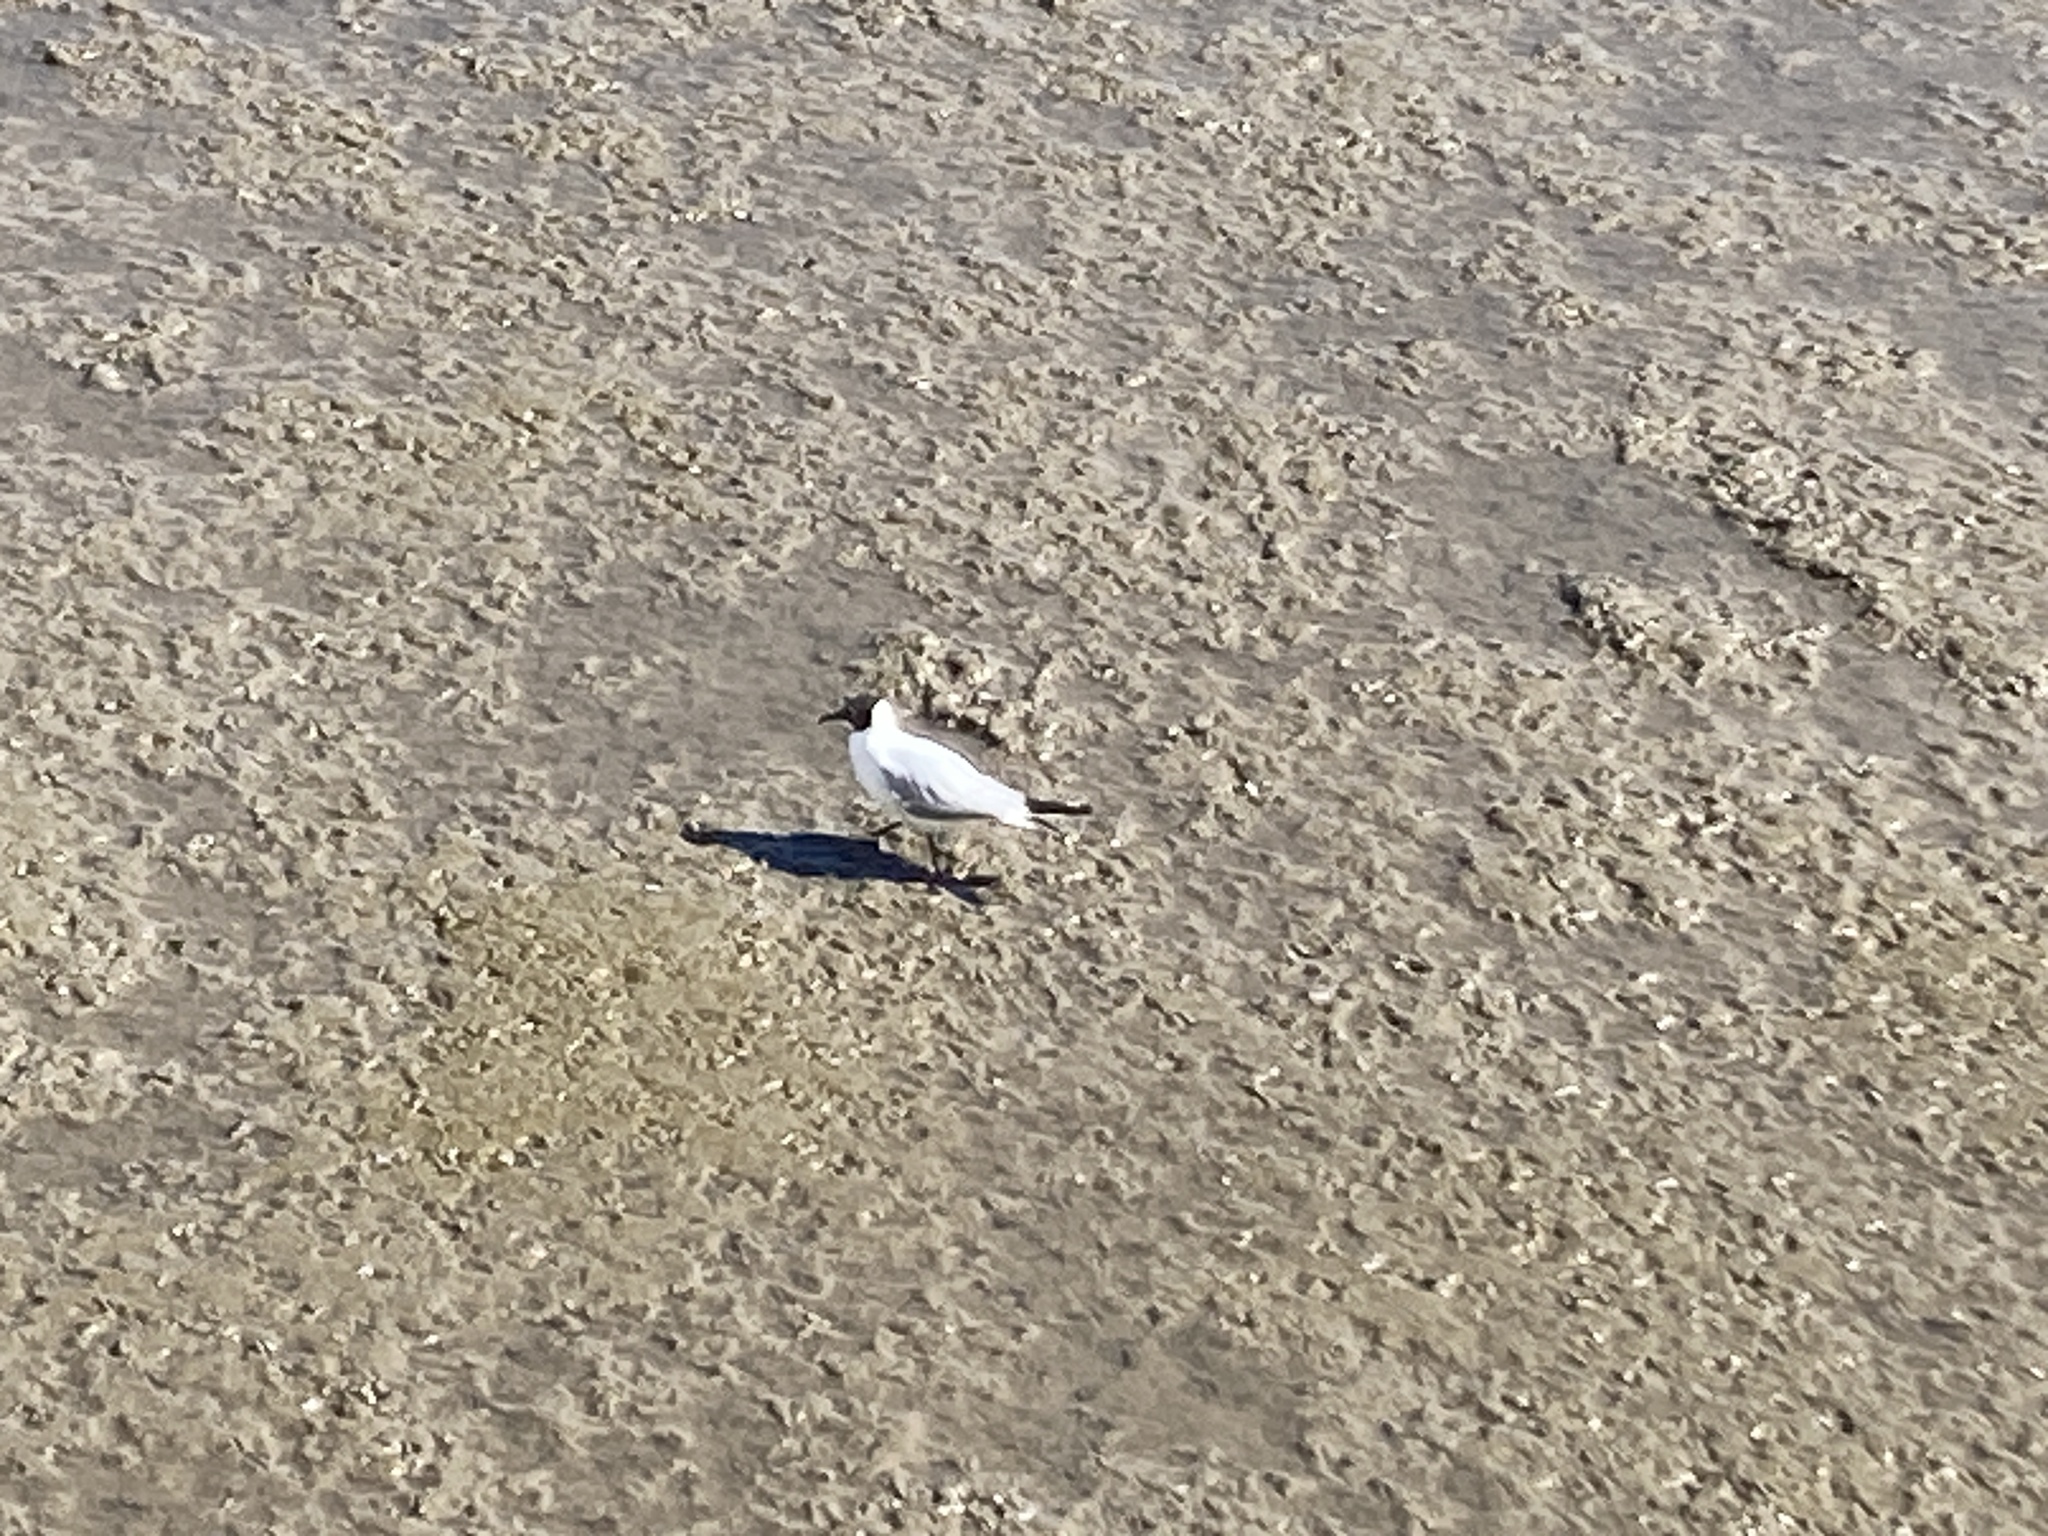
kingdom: Animalia
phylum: Chordata
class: Aves
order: Charadriiformes
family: Laridae
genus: Chroicocephalus
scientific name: Chroicocephalus ridibundus
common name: Black-headed gull
